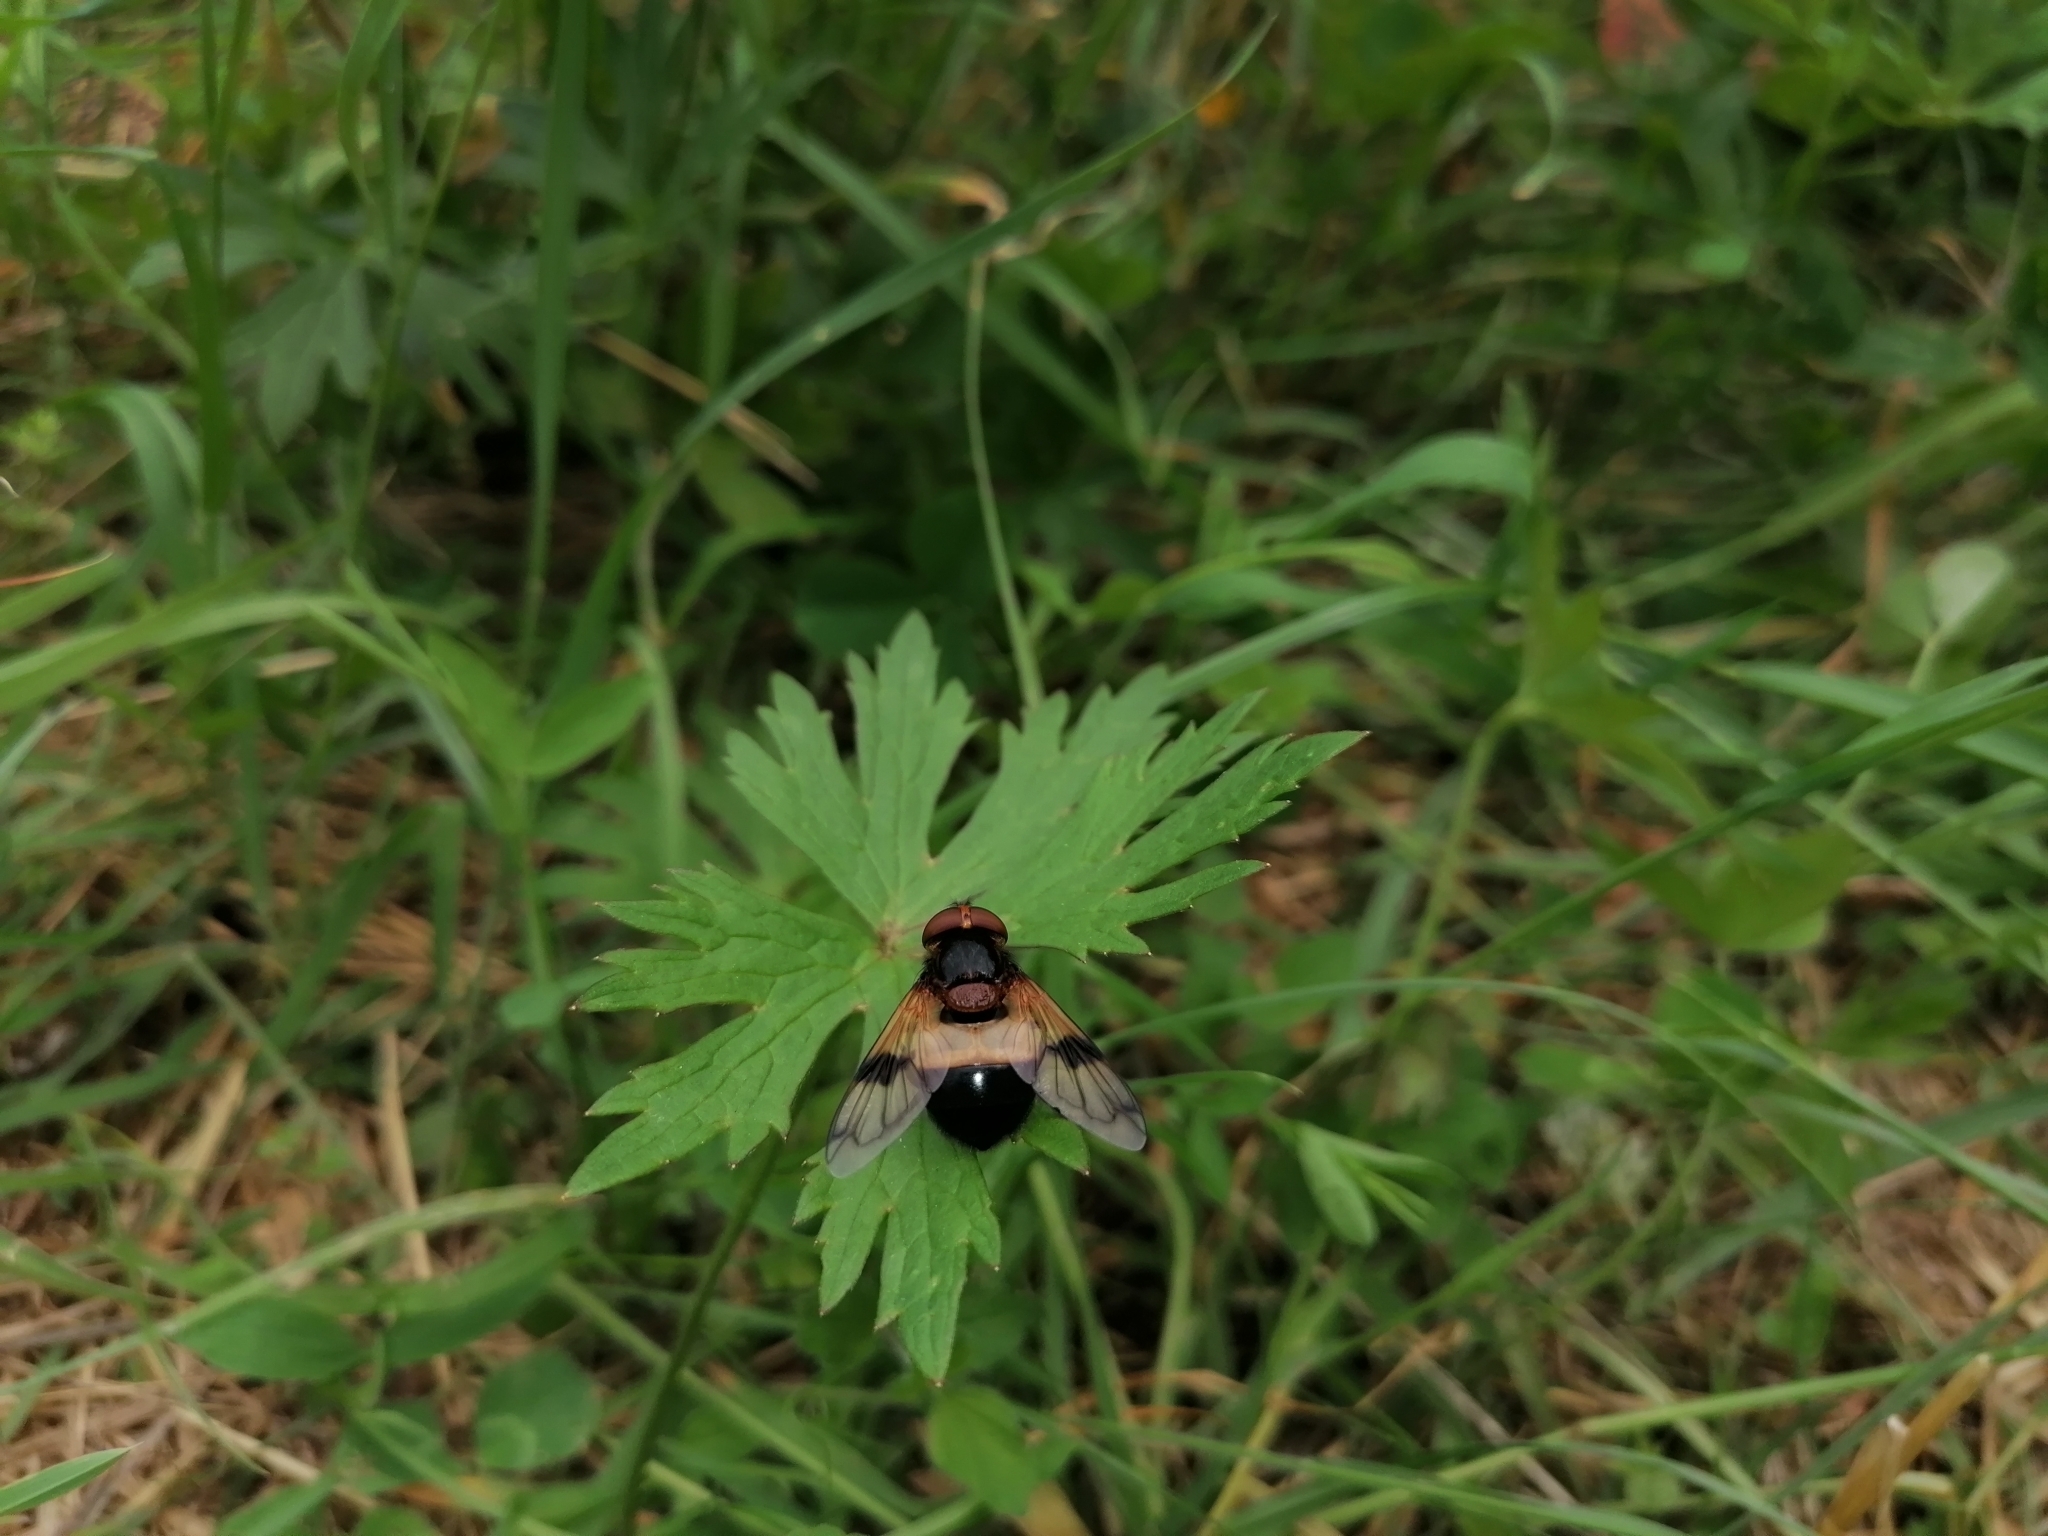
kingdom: Animalia
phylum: Arthropoda
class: Insecta
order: Diptera
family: Syrphidae
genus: Volucella
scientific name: Volucella pellucens
